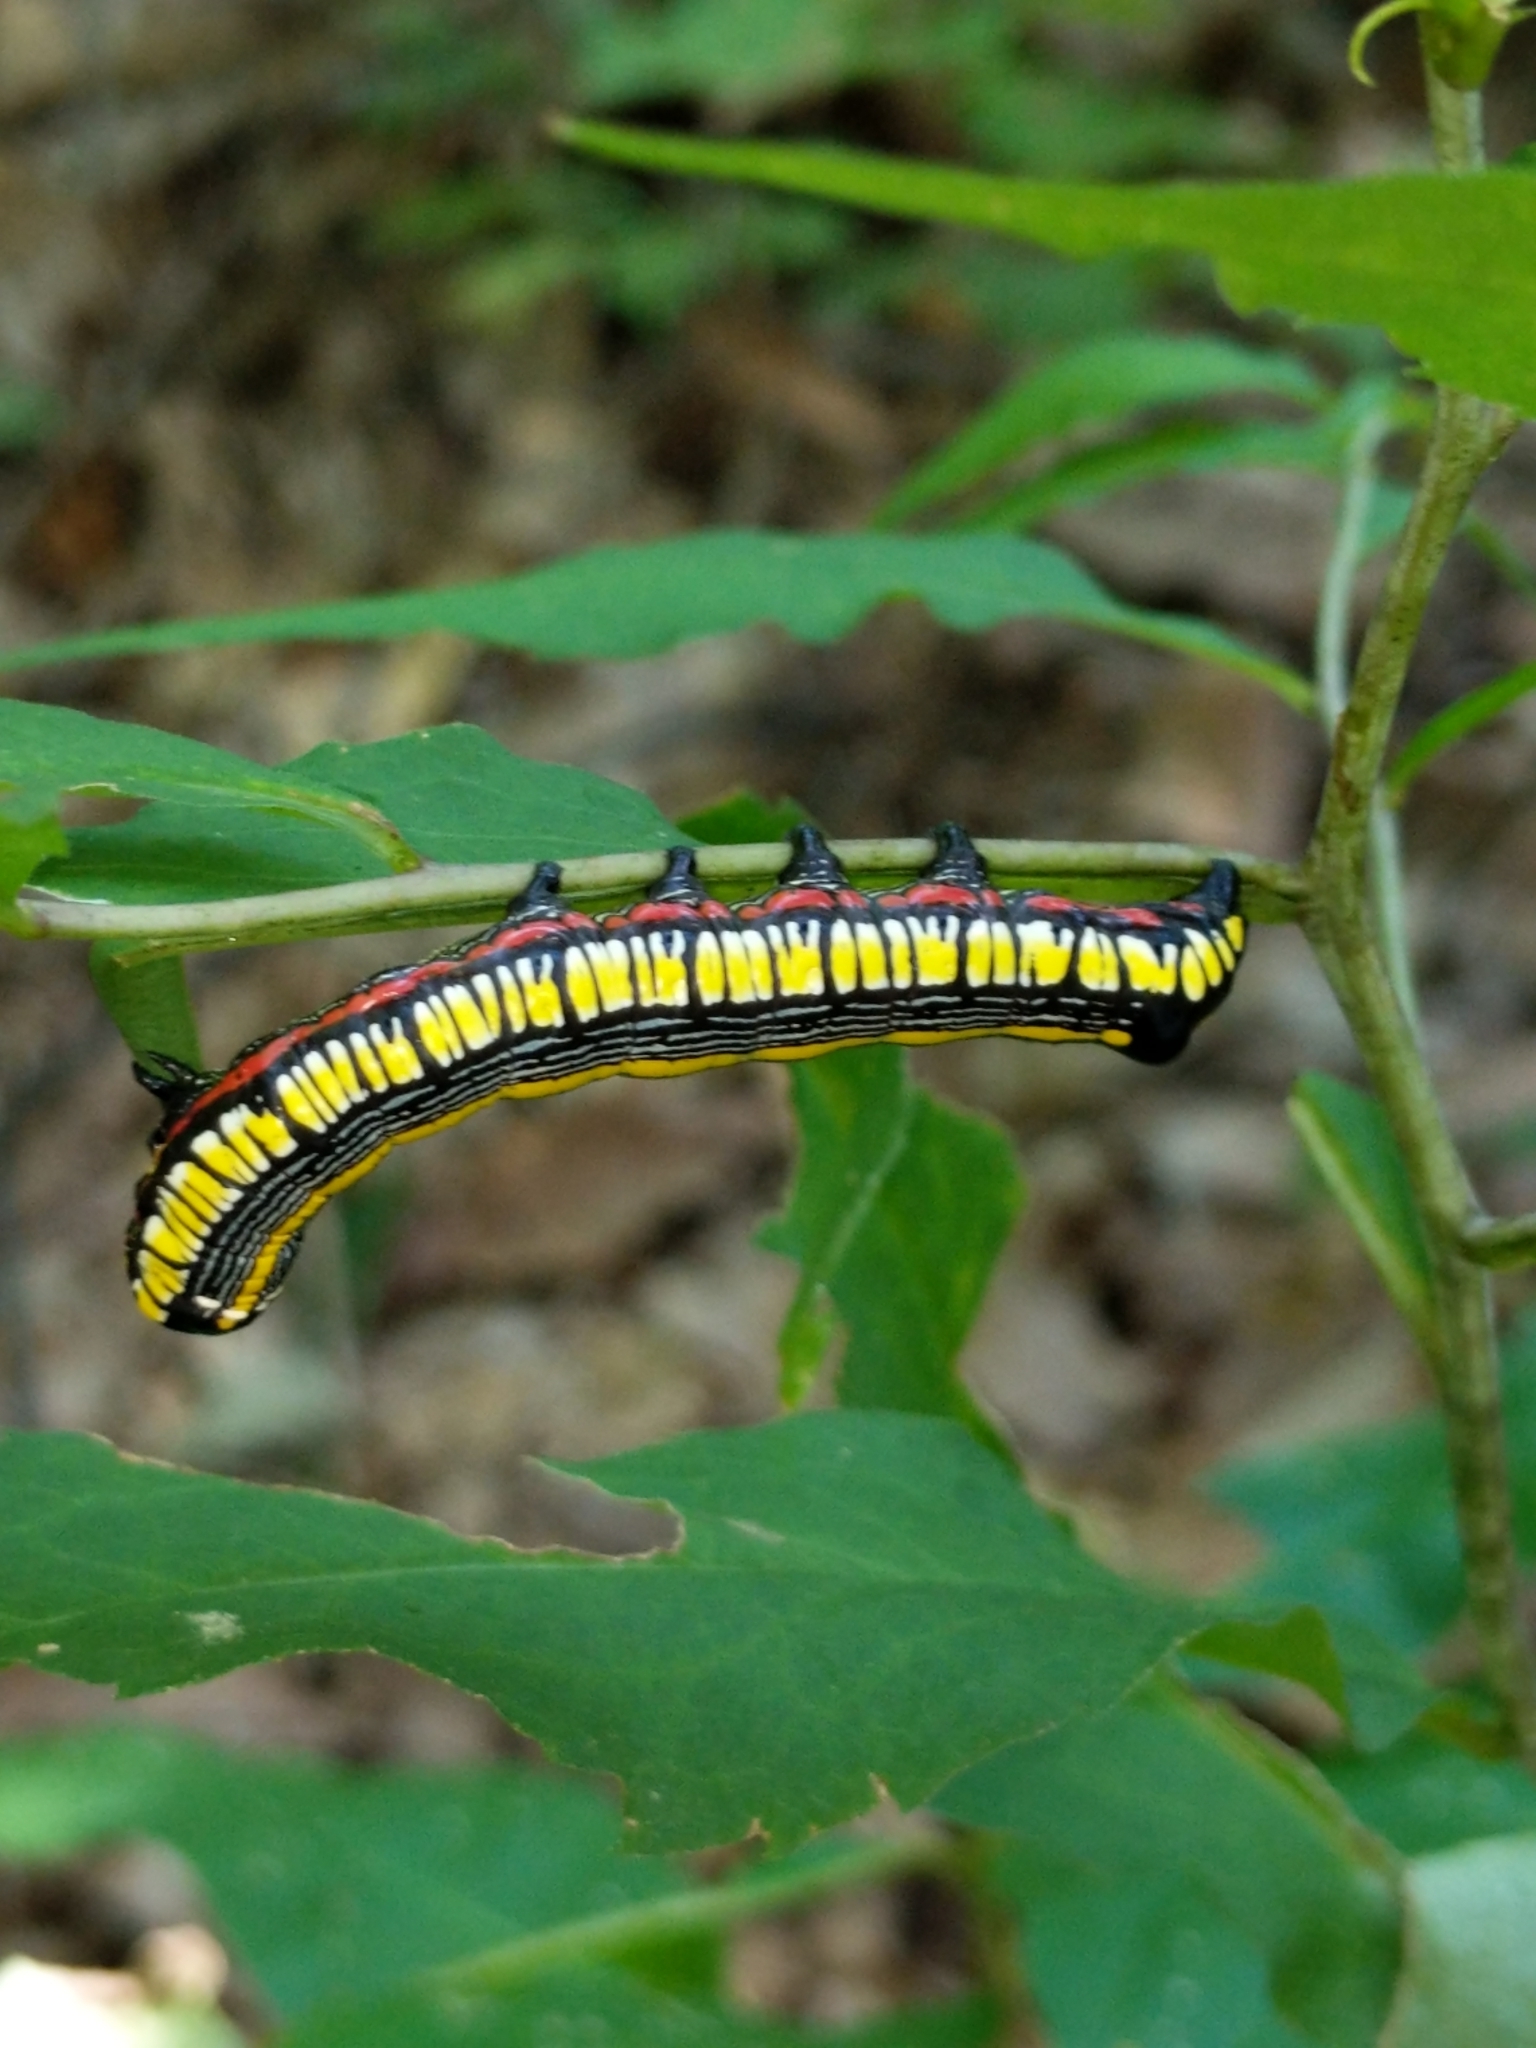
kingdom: Animalia
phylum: Arthropoda
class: Insecta
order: Lepidoptera
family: Noctuidae
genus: Cucullia
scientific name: Cucullia convexipennis
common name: Brown-hooded owlet
